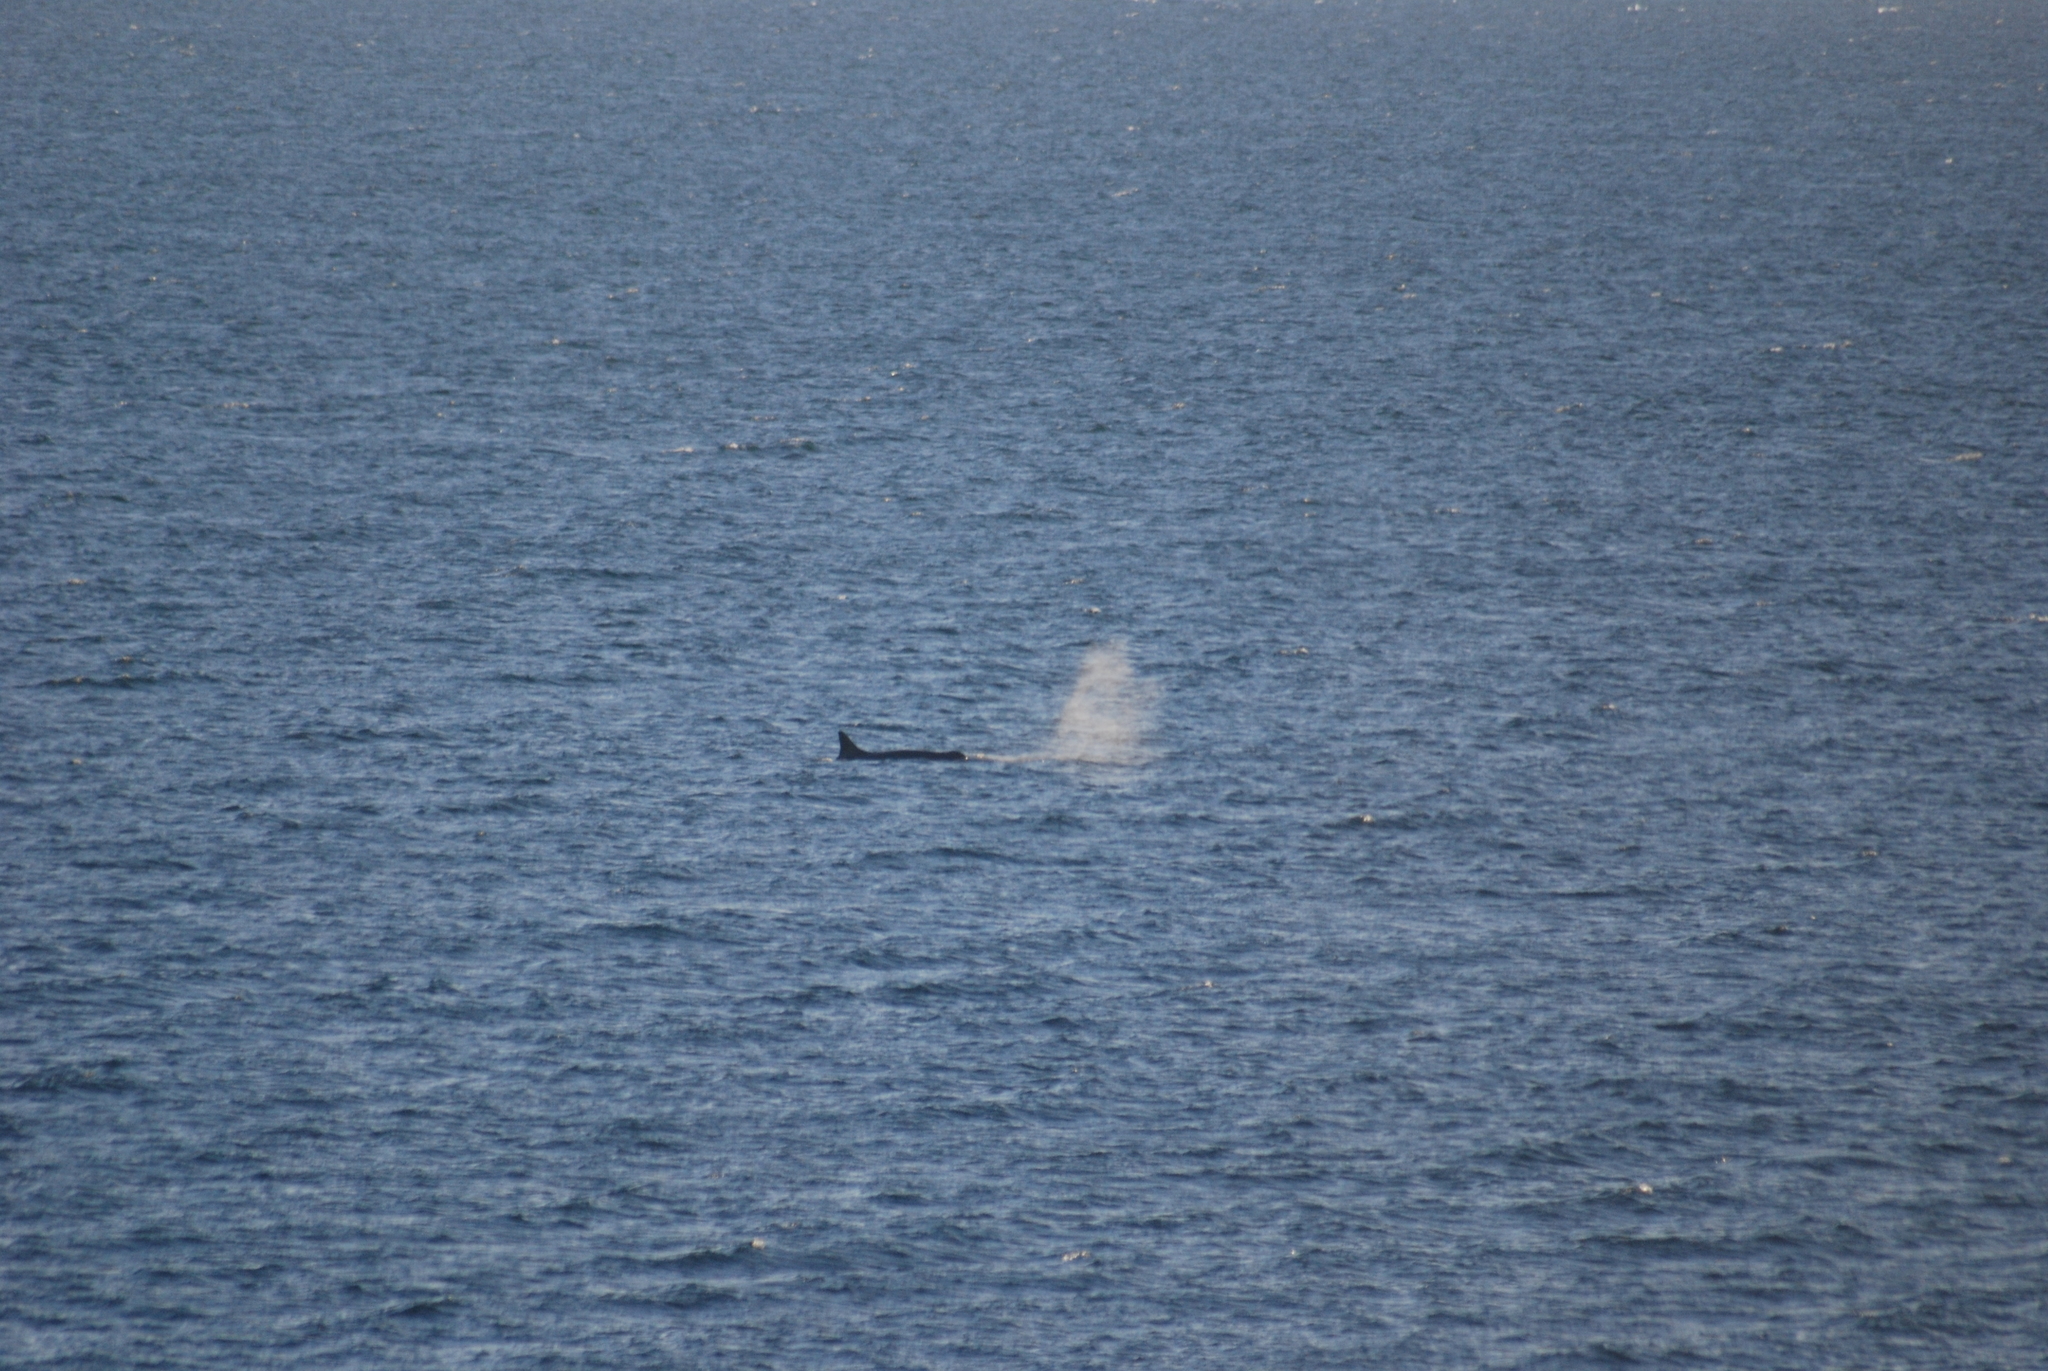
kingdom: Animalia
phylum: Chordata
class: Mammalia
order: Cetacea
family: Delphinidae
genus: Orcinus
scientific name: Orcinus orca
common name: Killer whale
